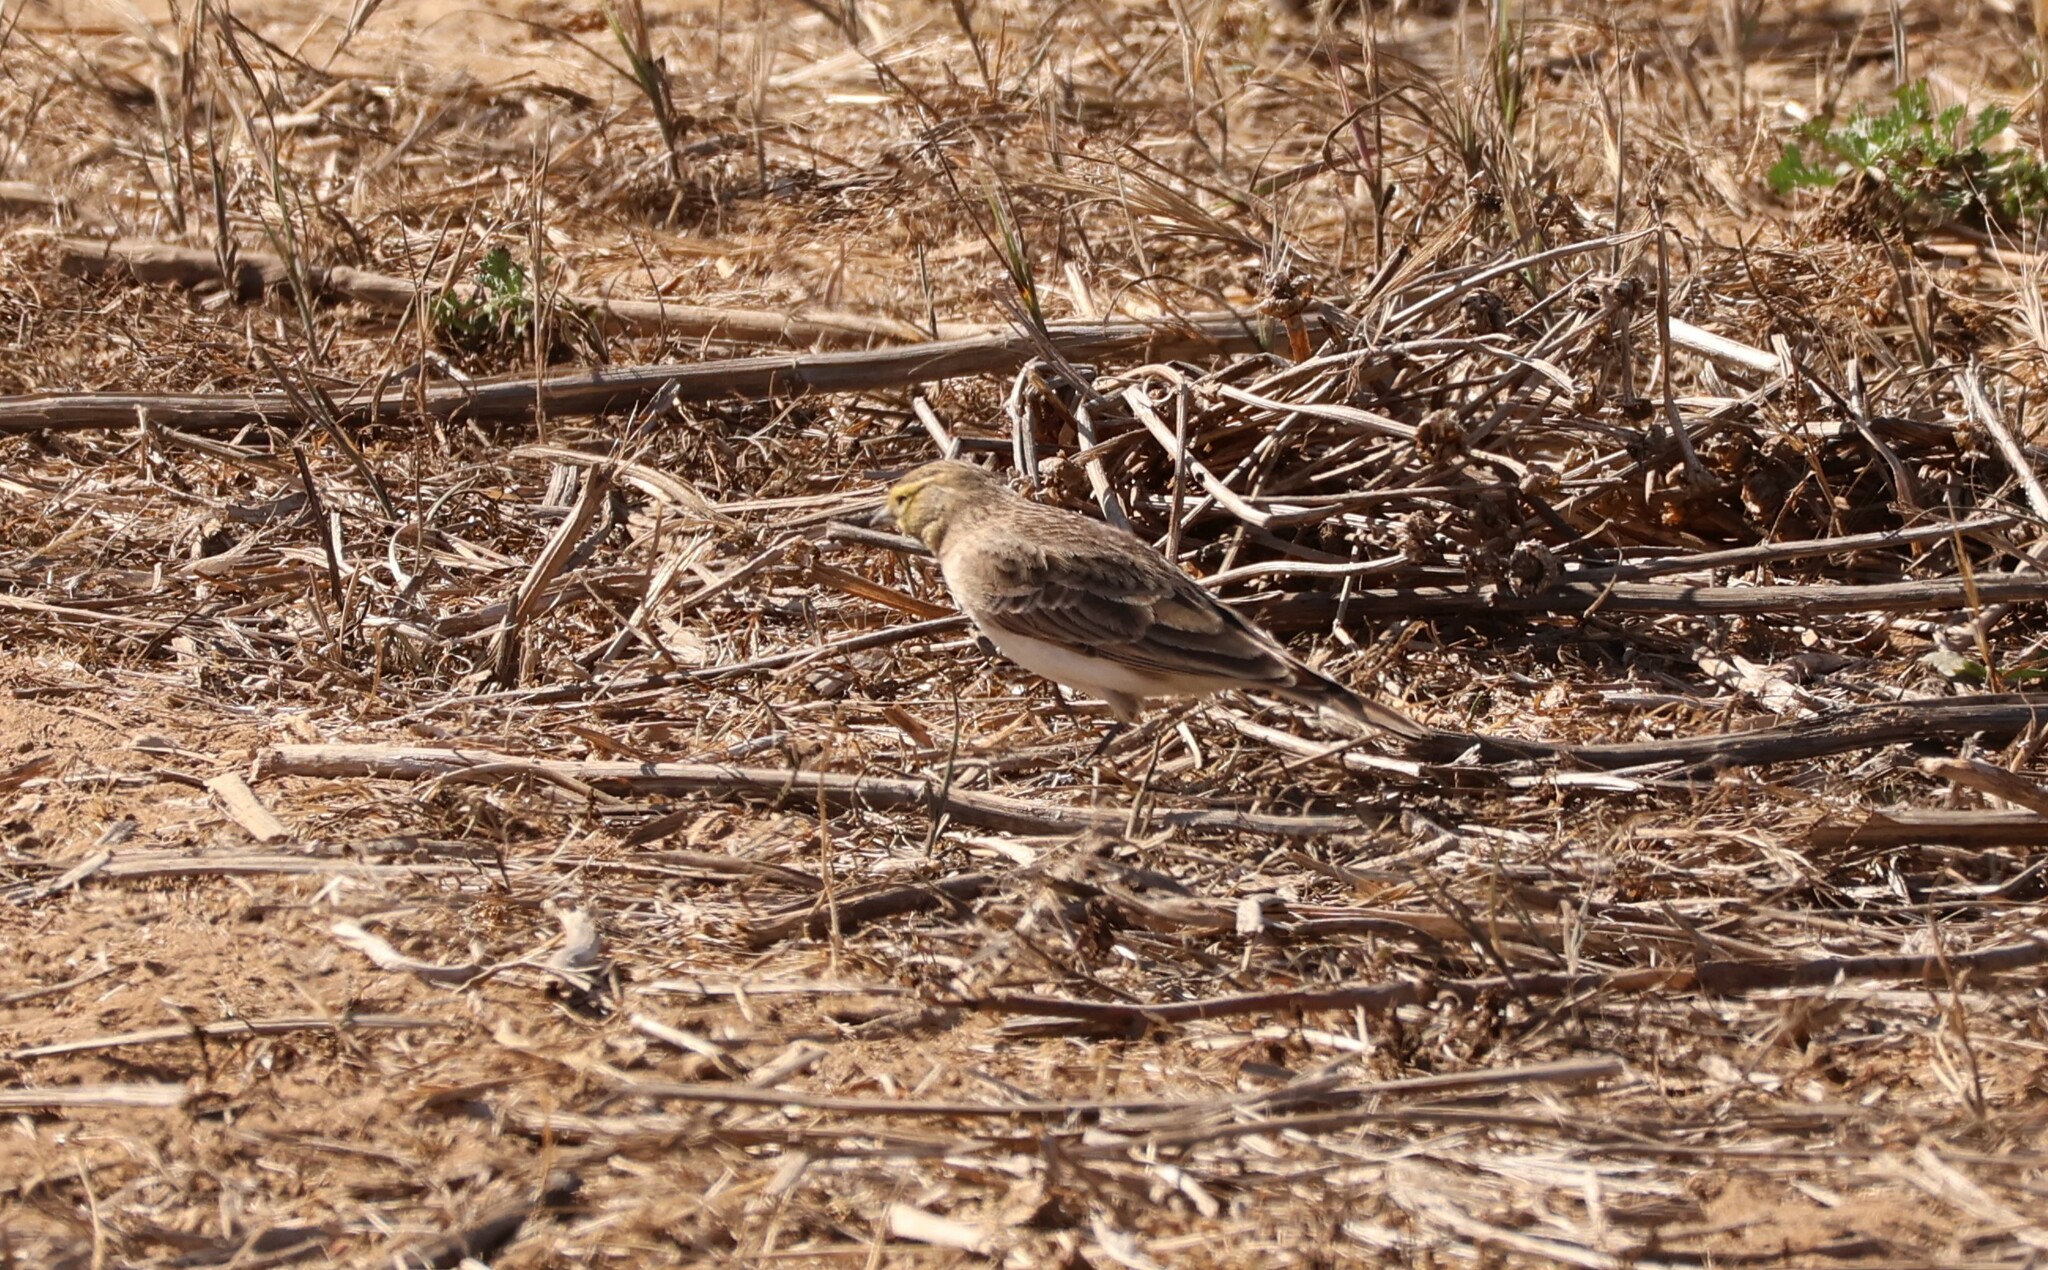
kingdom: Animalia
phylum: Chordata
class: Aves
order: Passeriformes
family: Alaudidae
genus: Eremophila
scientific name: Eremophila alpestris
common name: Horned lark
